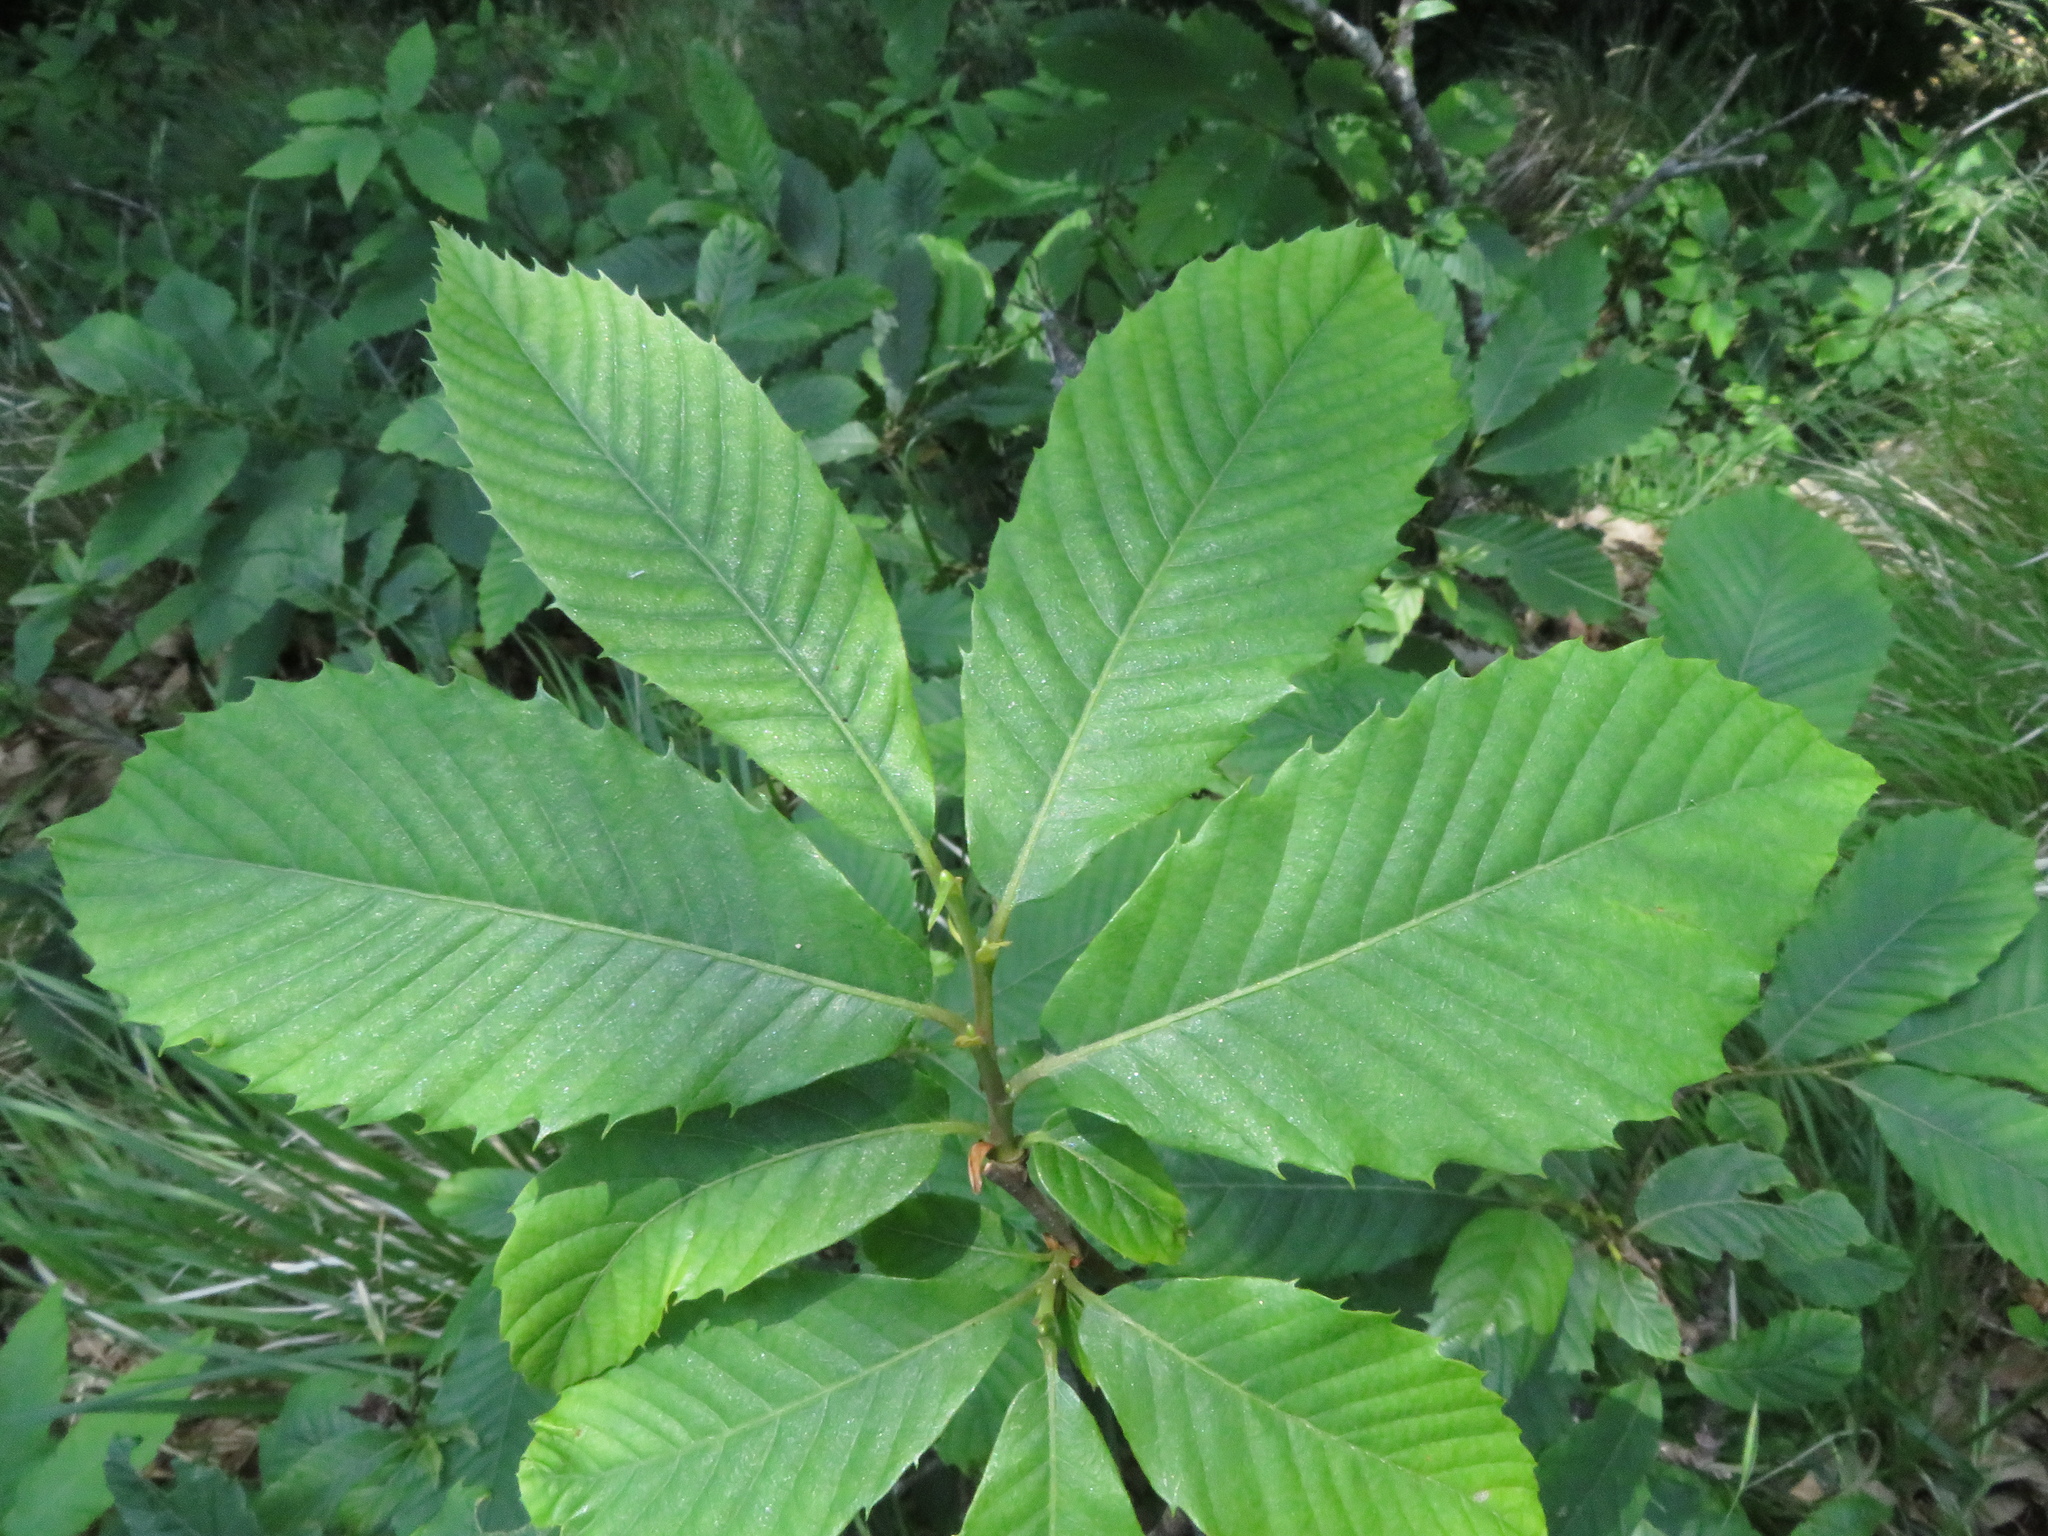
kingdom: Plantae
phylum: Tracheophyta
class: Magnoliopsida
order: Fagales
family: Fagaceae
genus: Castanea
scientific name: Castanea sativa
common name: Sweet chestnut
